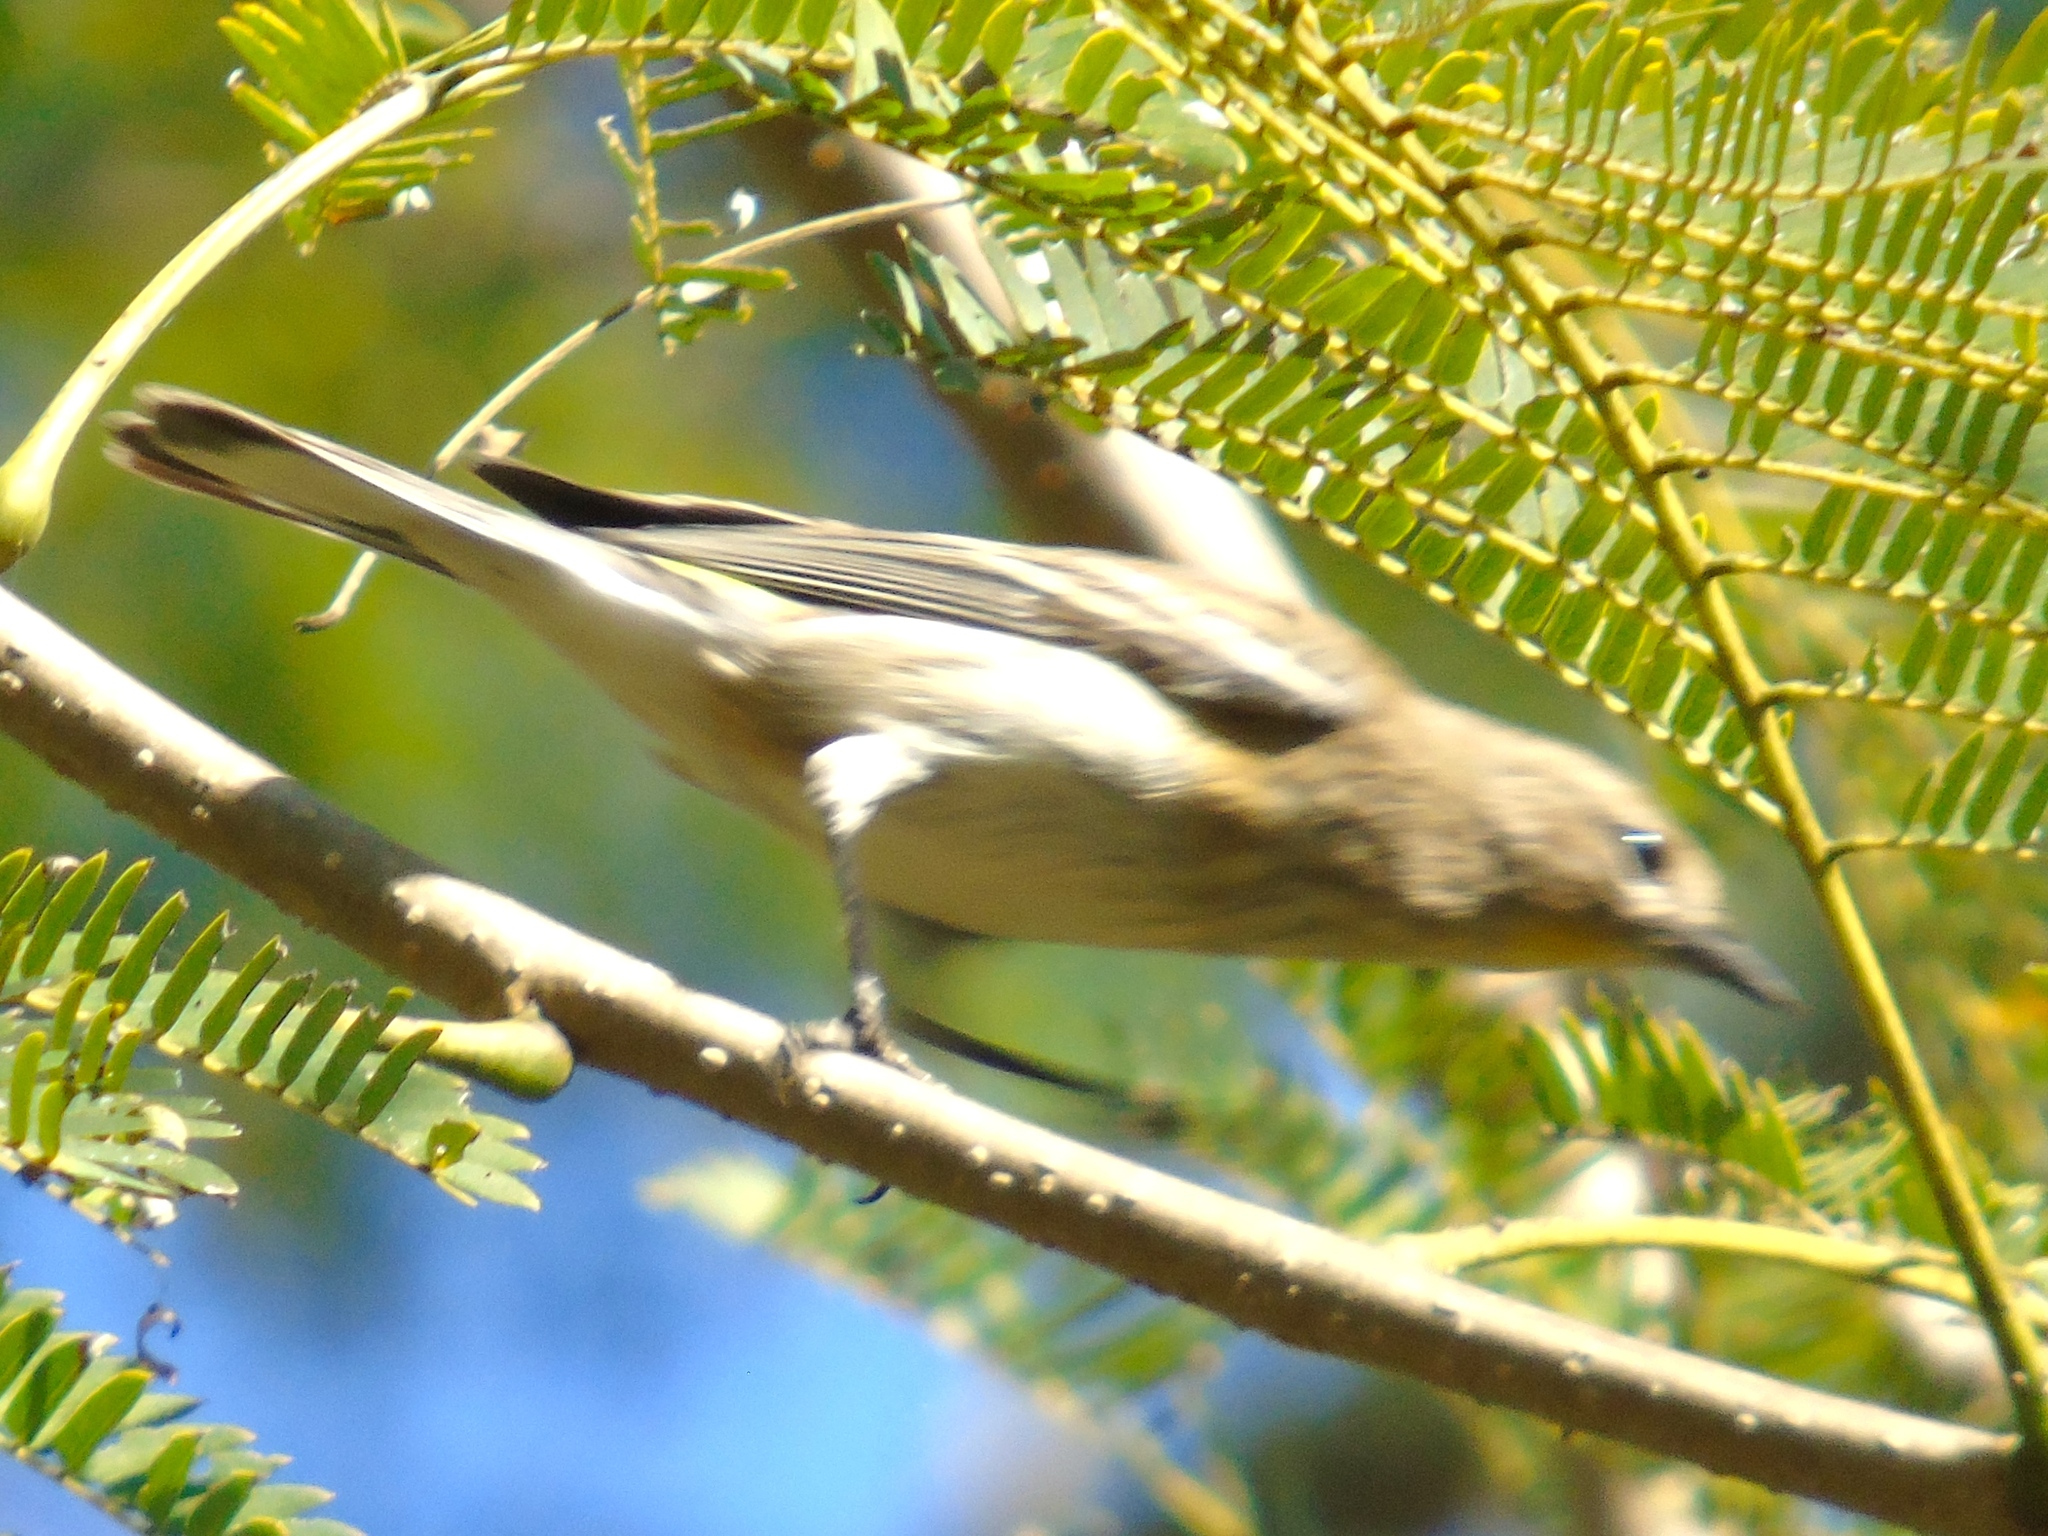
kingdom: Animalia
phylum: Chordata
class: Aves
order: Passeriformes
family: Parulidae
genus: Setophaga
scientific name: Setophaga coronata
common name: Myrtle warbler
